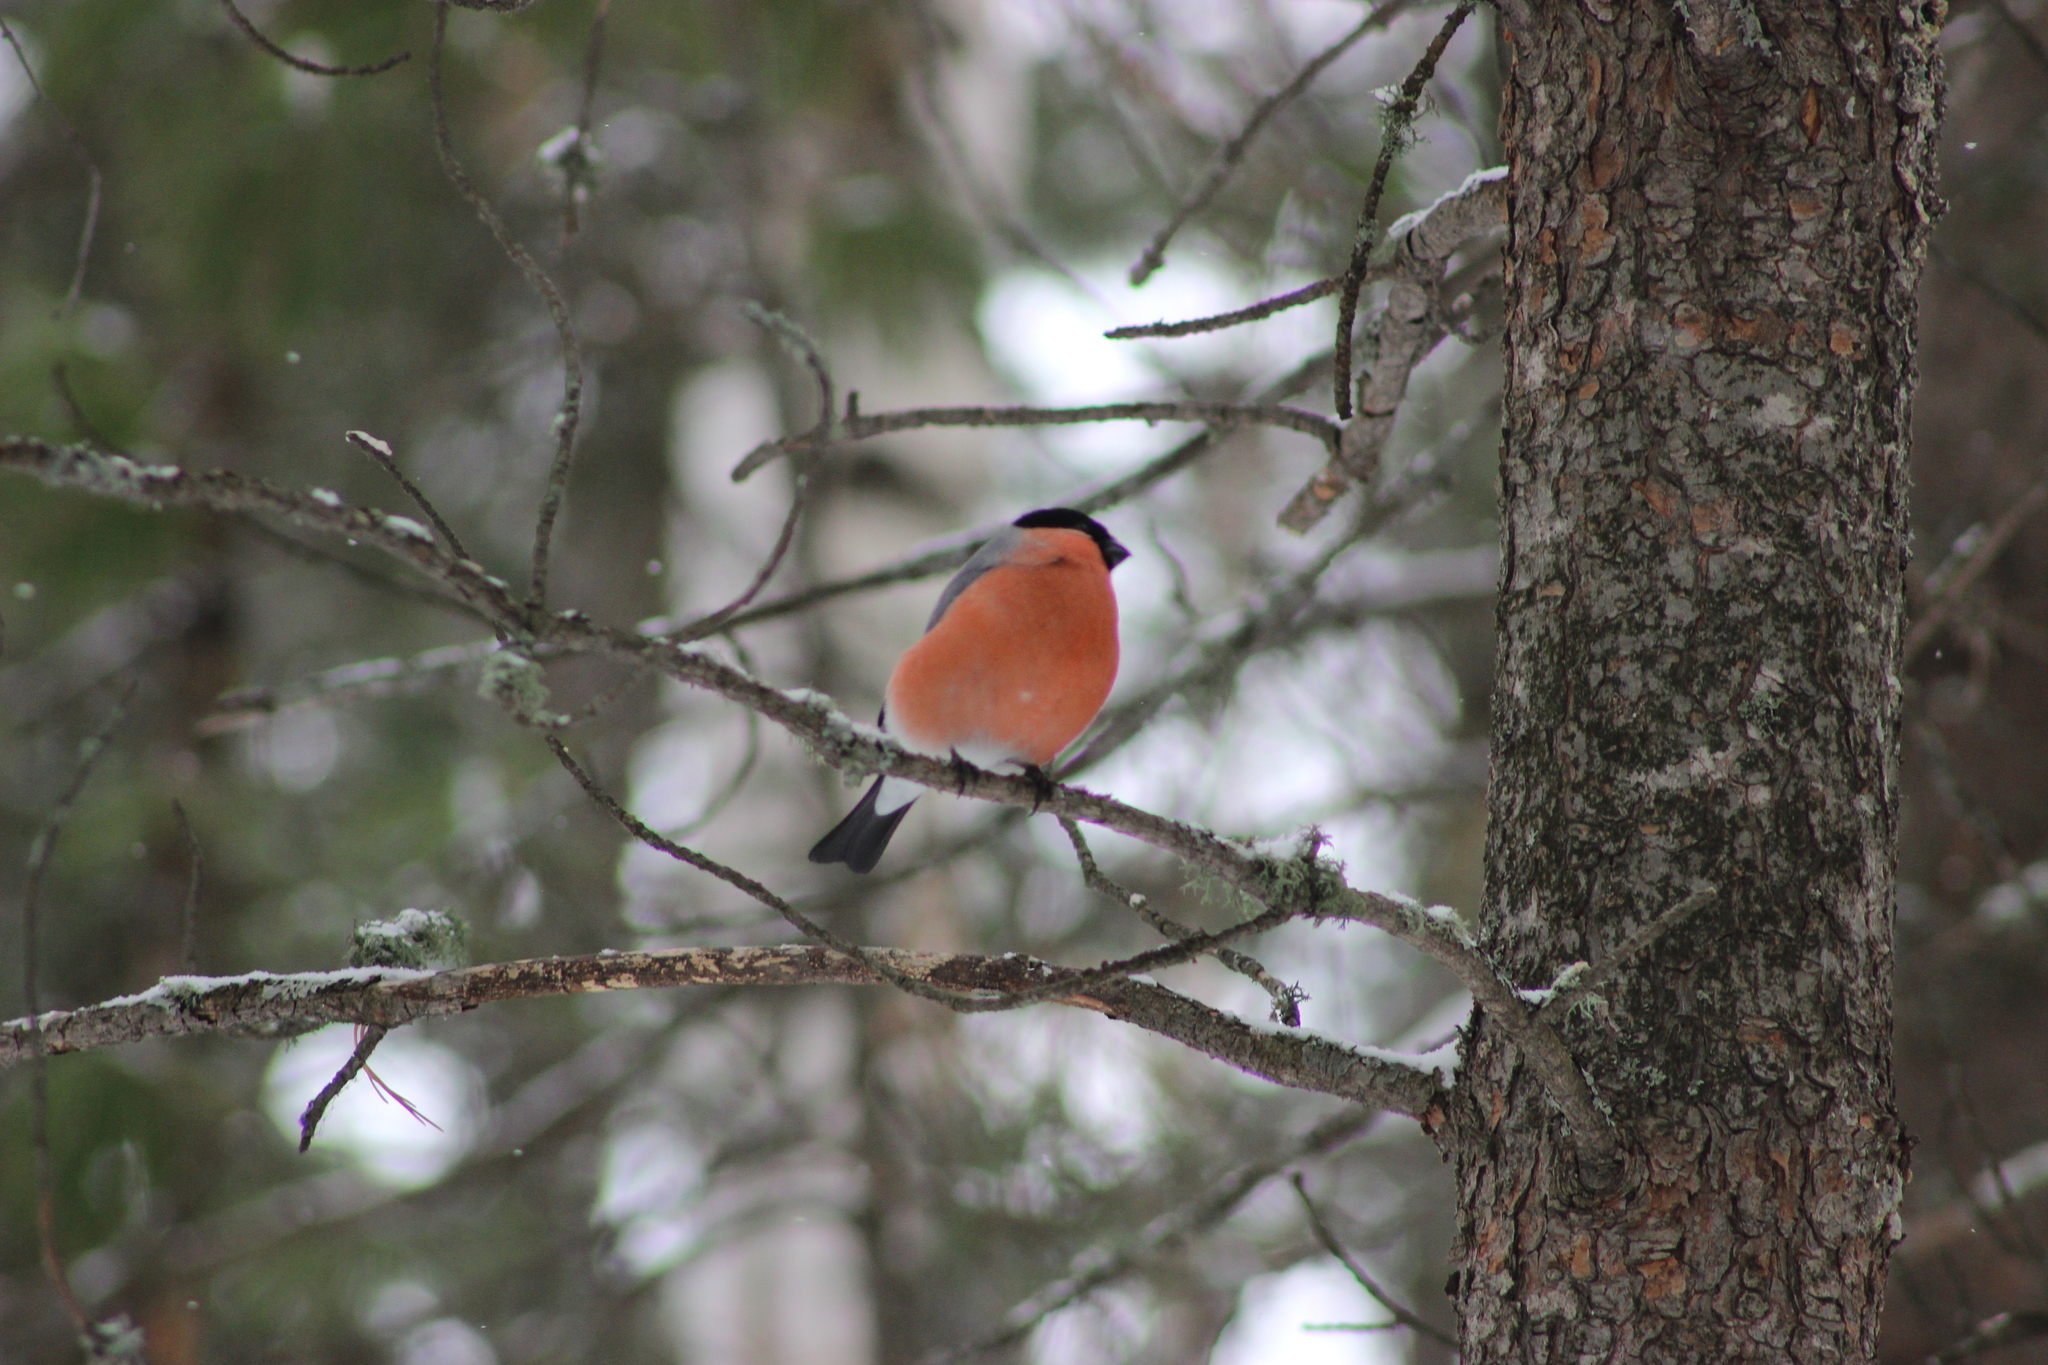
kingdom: Animalia
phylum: Chordata
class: Aves
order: Passeriformes
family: Fringillidae
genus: Pyrrhula
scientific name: Pyrrhula pyrrhula
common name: Eurasian bullfinch
